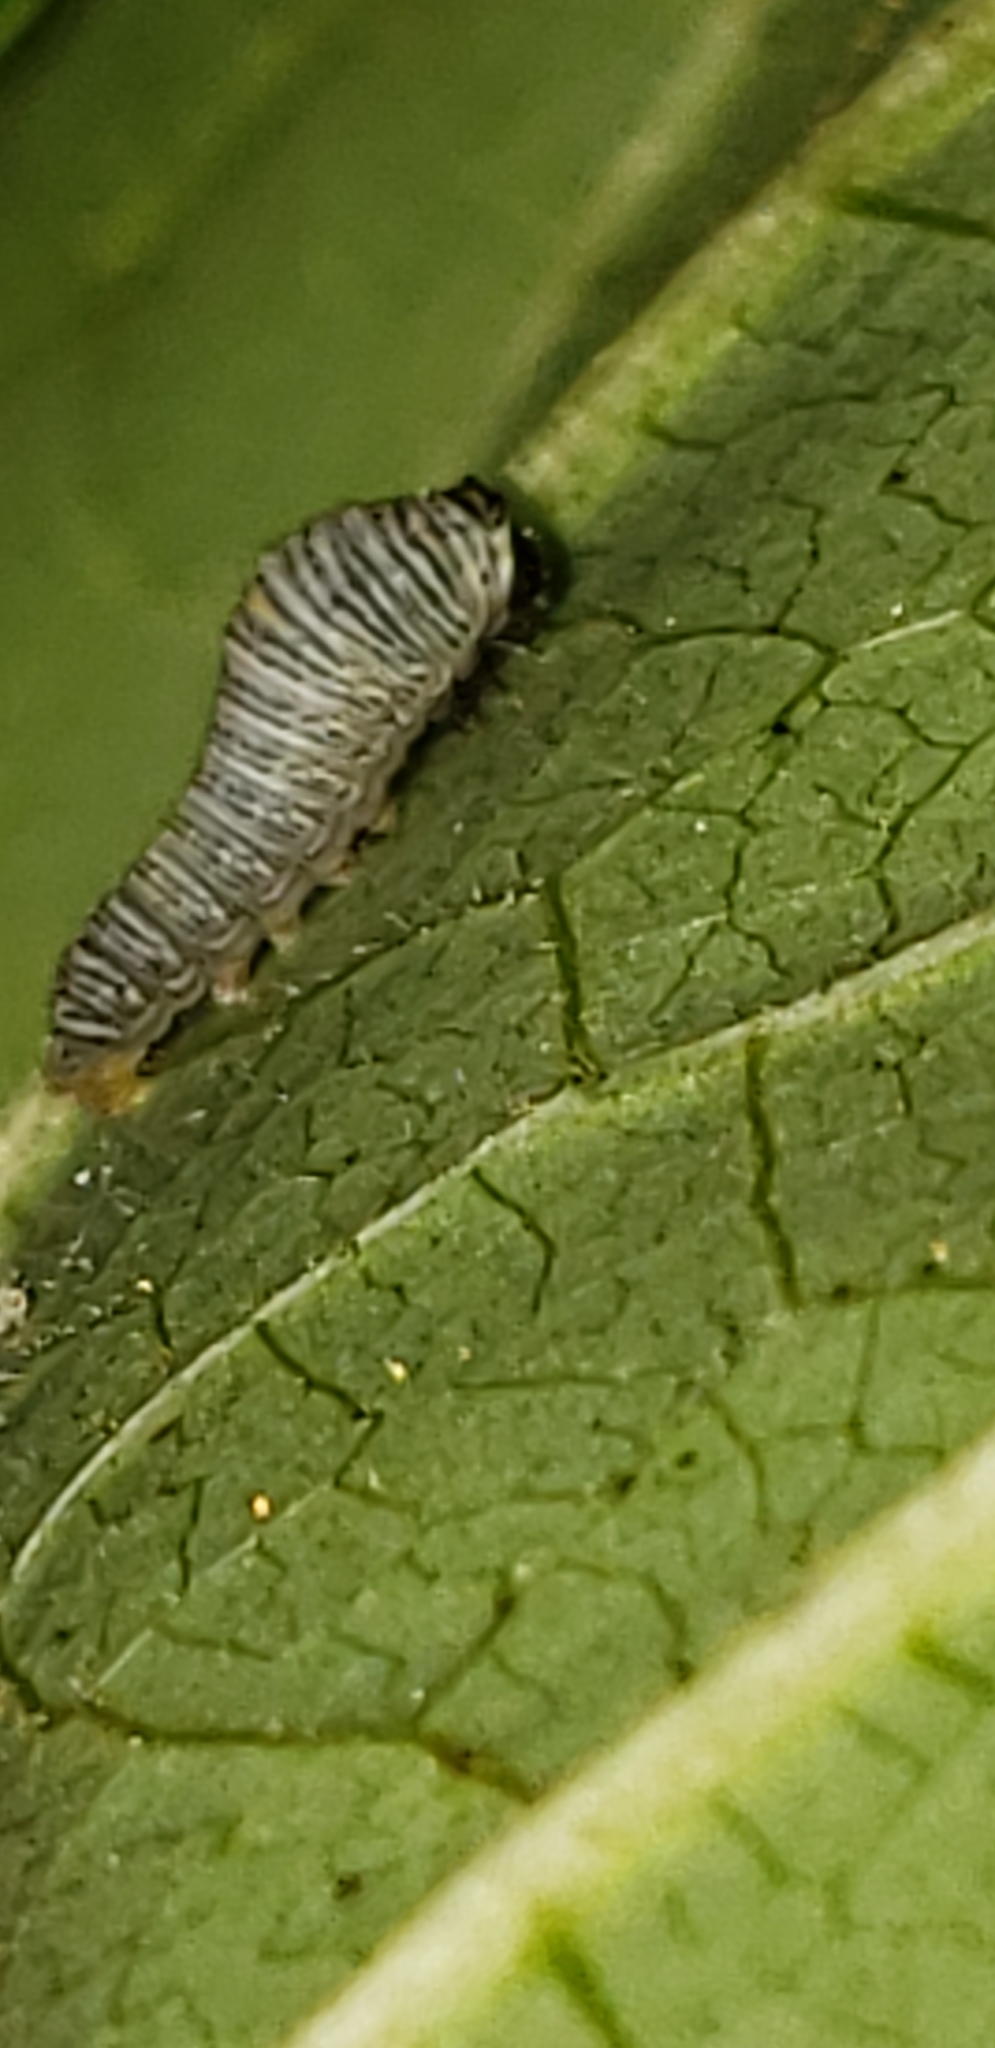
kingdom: Animalia
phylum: Arthropoda
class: Insecta
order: Lepidoptera
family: Papilionidae
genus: Protographium
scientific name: Protographium marcellus
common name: Zebra swallowtail
